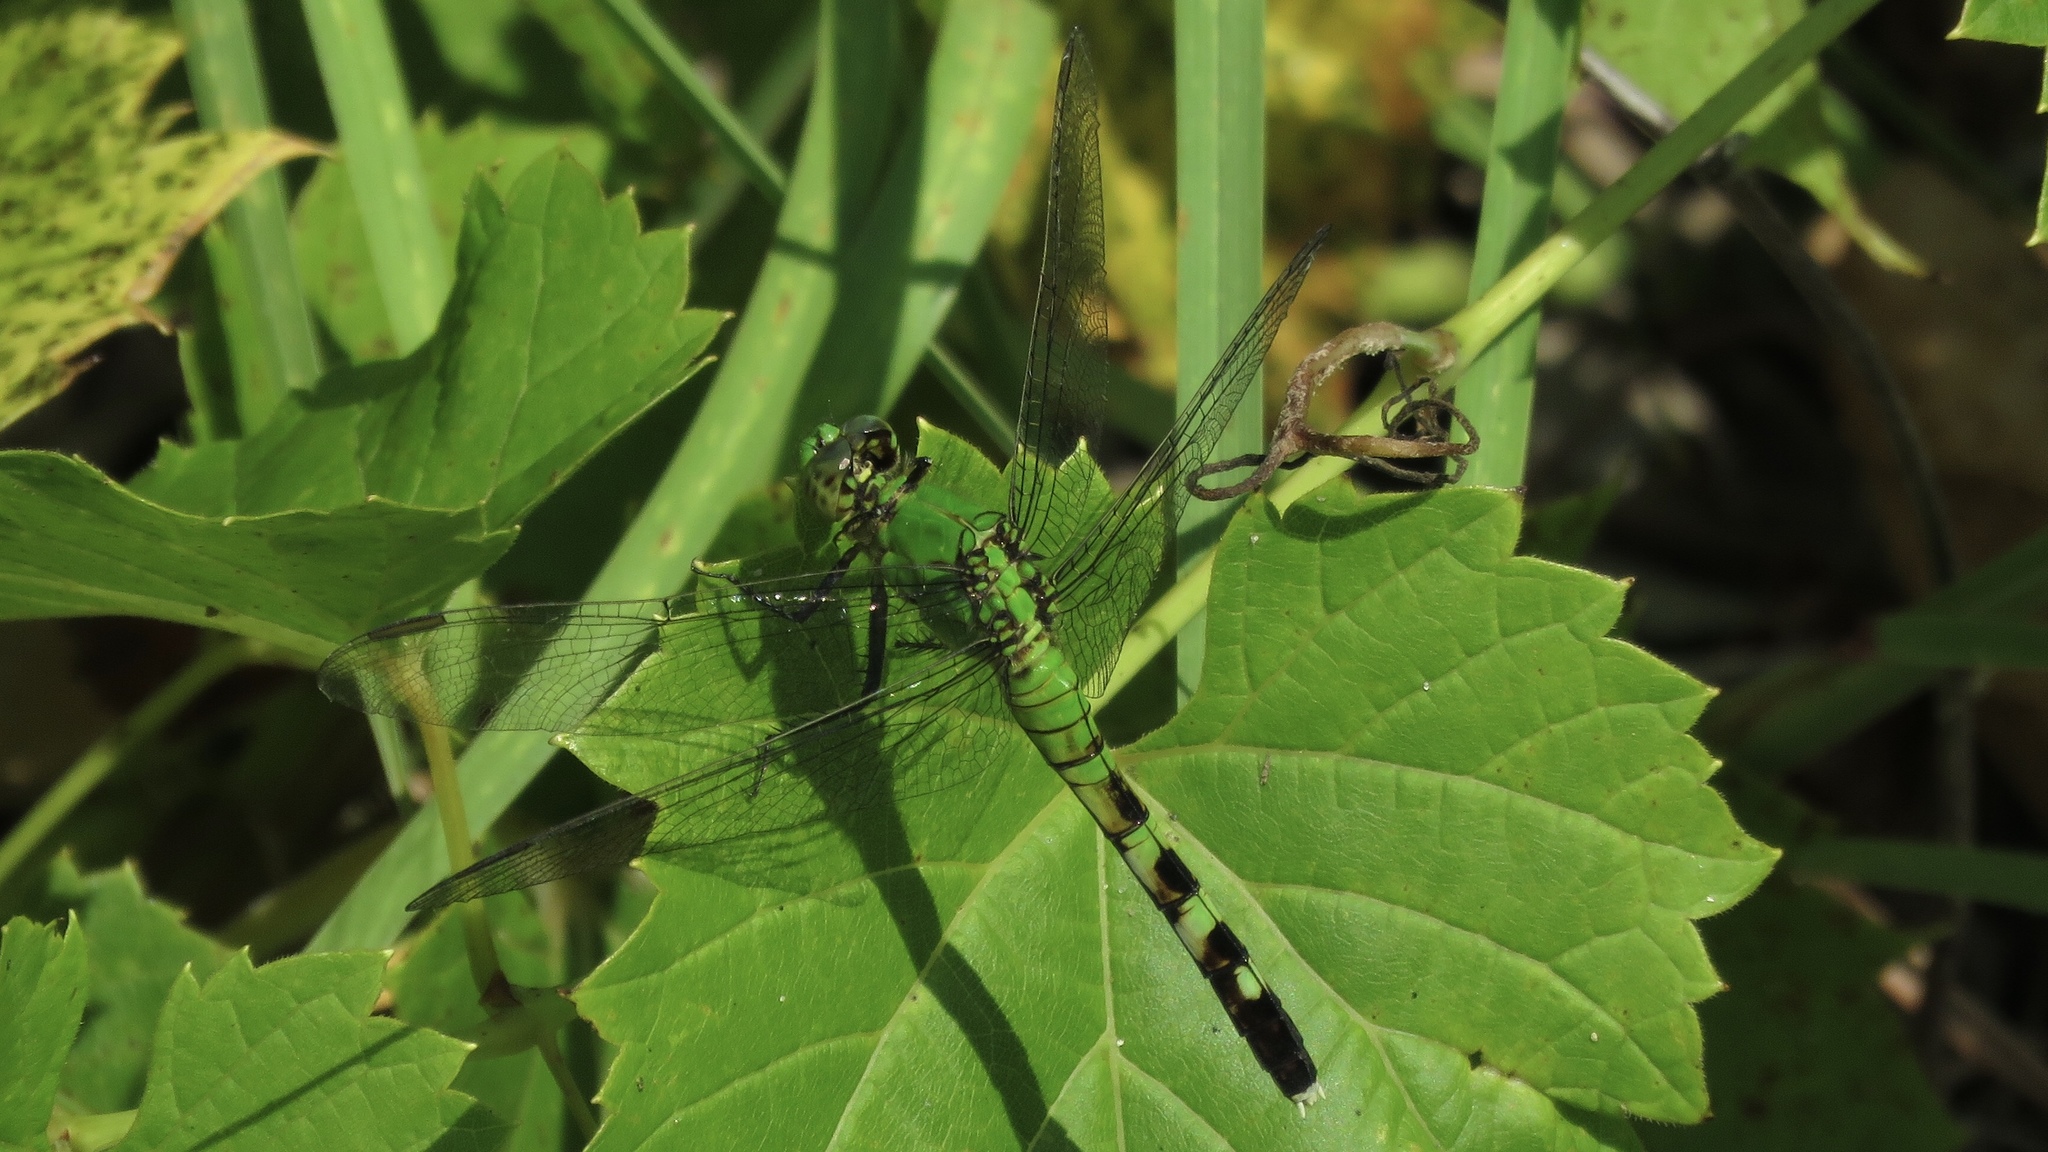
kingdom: Animalia
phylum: Arthropoda
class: Insecta
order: Odonata
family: Libellulidae
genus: Erythemis
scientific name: Erythemis simplicicollis
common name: Eastern pondhawk
